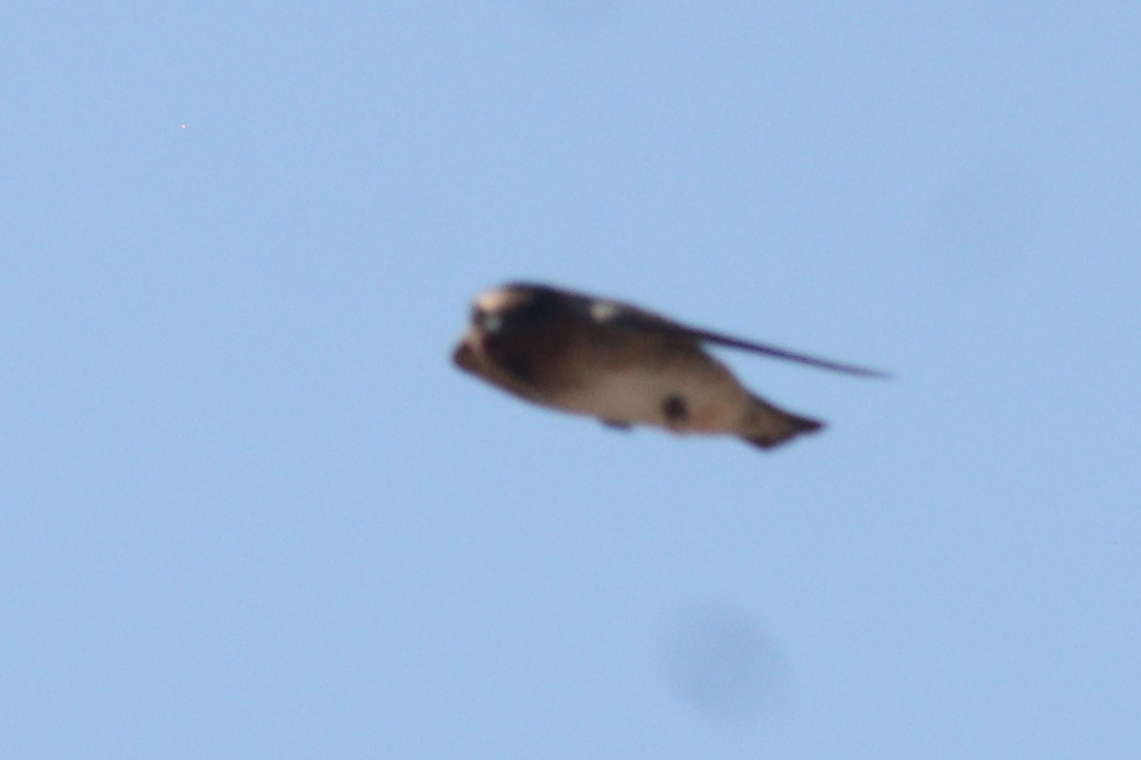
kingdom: Animalia
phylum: Chordata
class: Aves
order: Passeriformes
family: Hirundinidae
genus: Petrochelidon
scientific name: Petrochelidon pyrrhonota
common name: American cliff swallow
